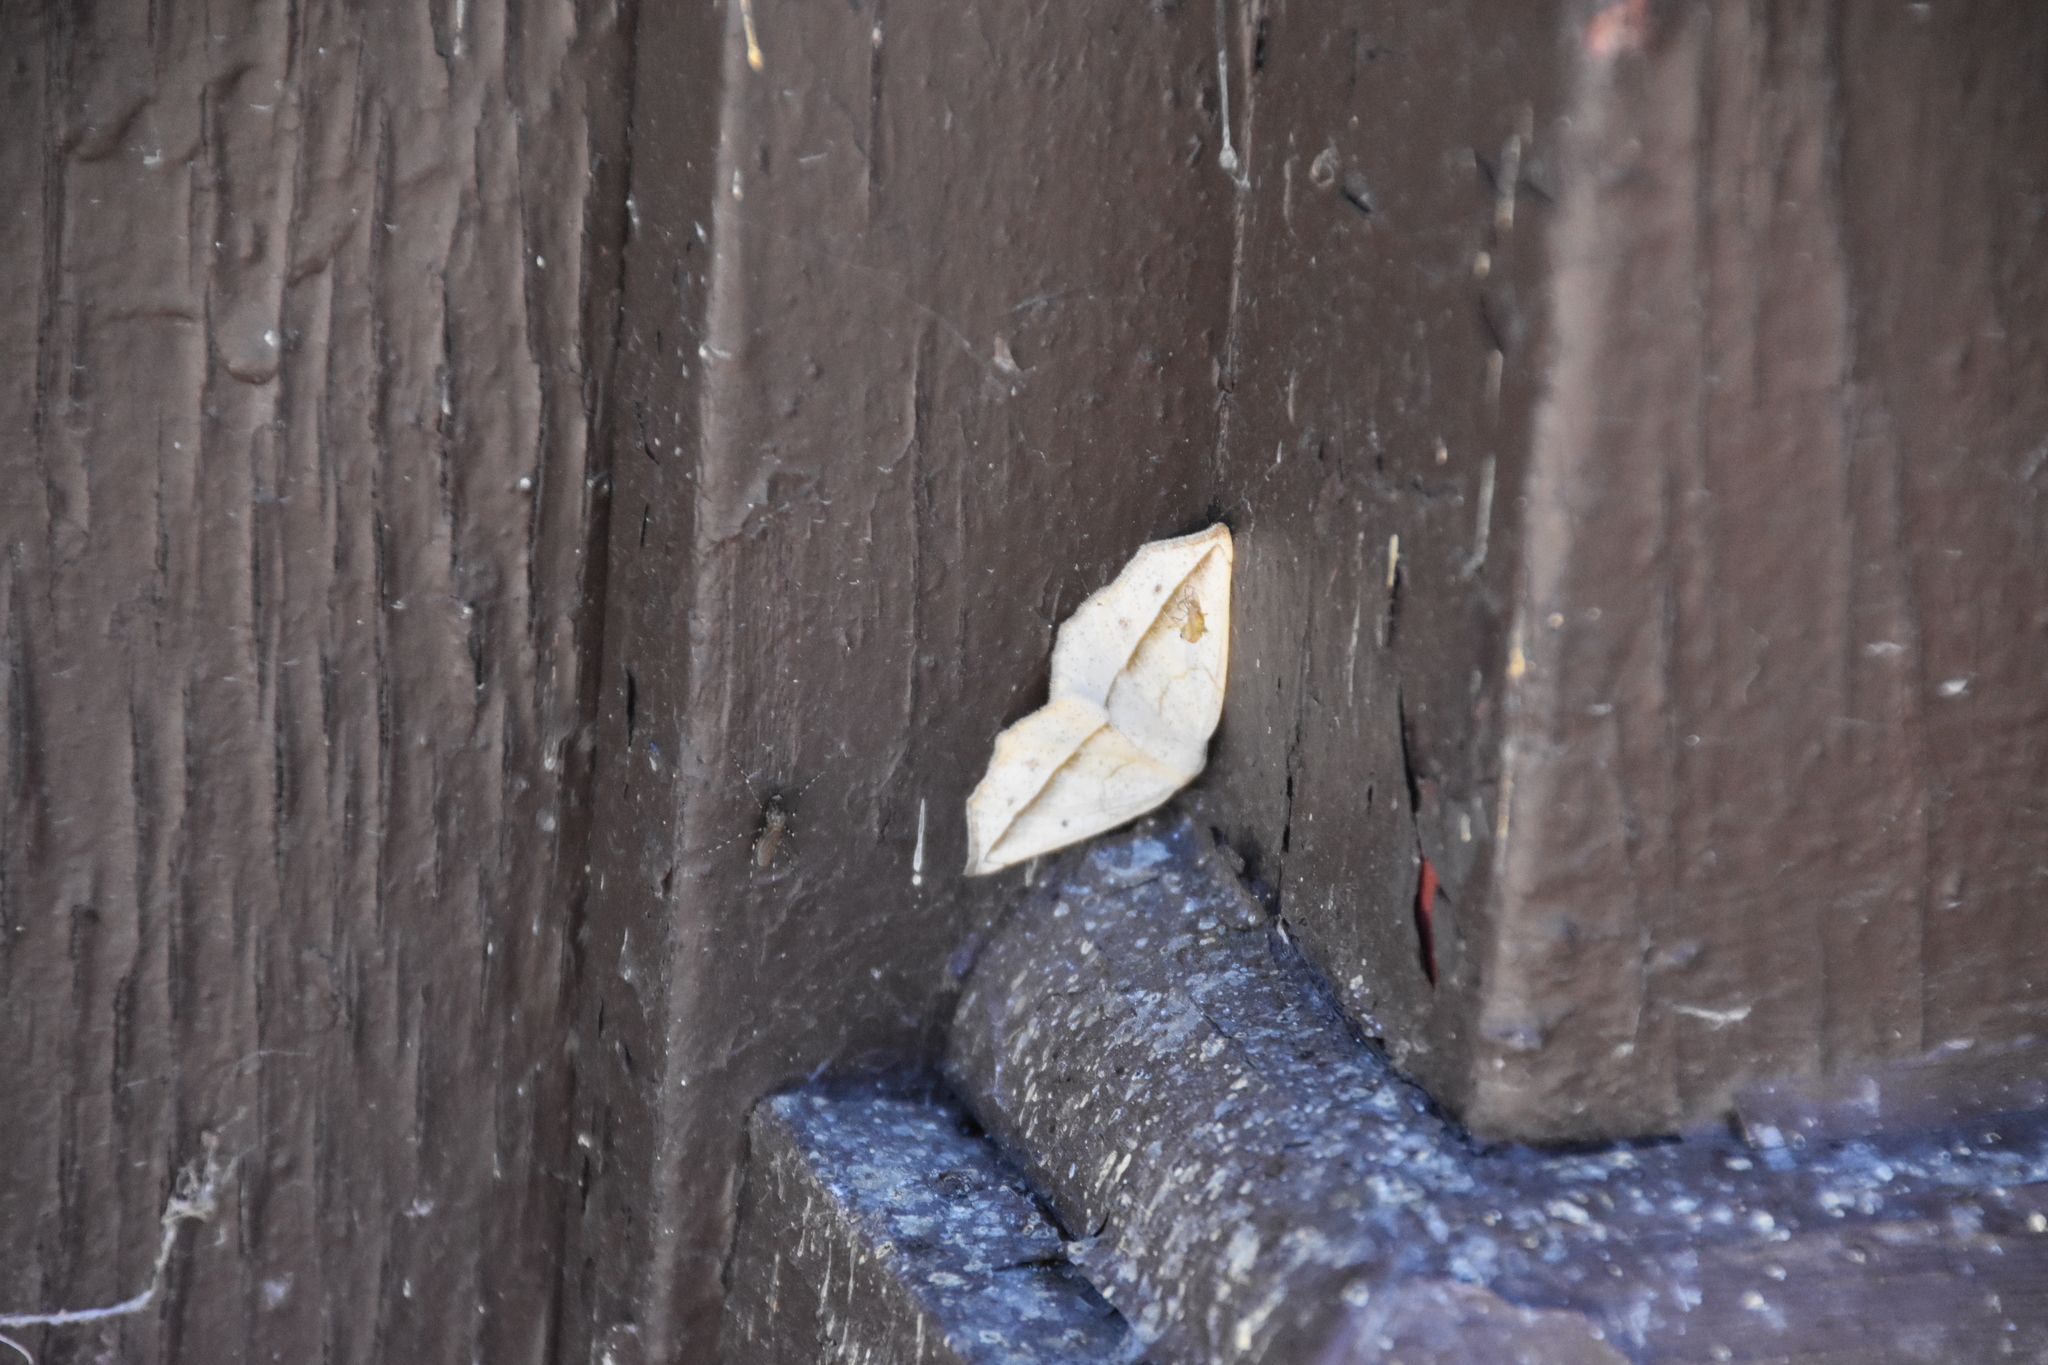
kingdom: Animalia
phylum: Arthropoda
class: Insecta
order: Lepidoptera
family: Geometridae
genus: Prochoerodes
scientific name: Prochoerodes lineola
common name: Large maple spanworm
